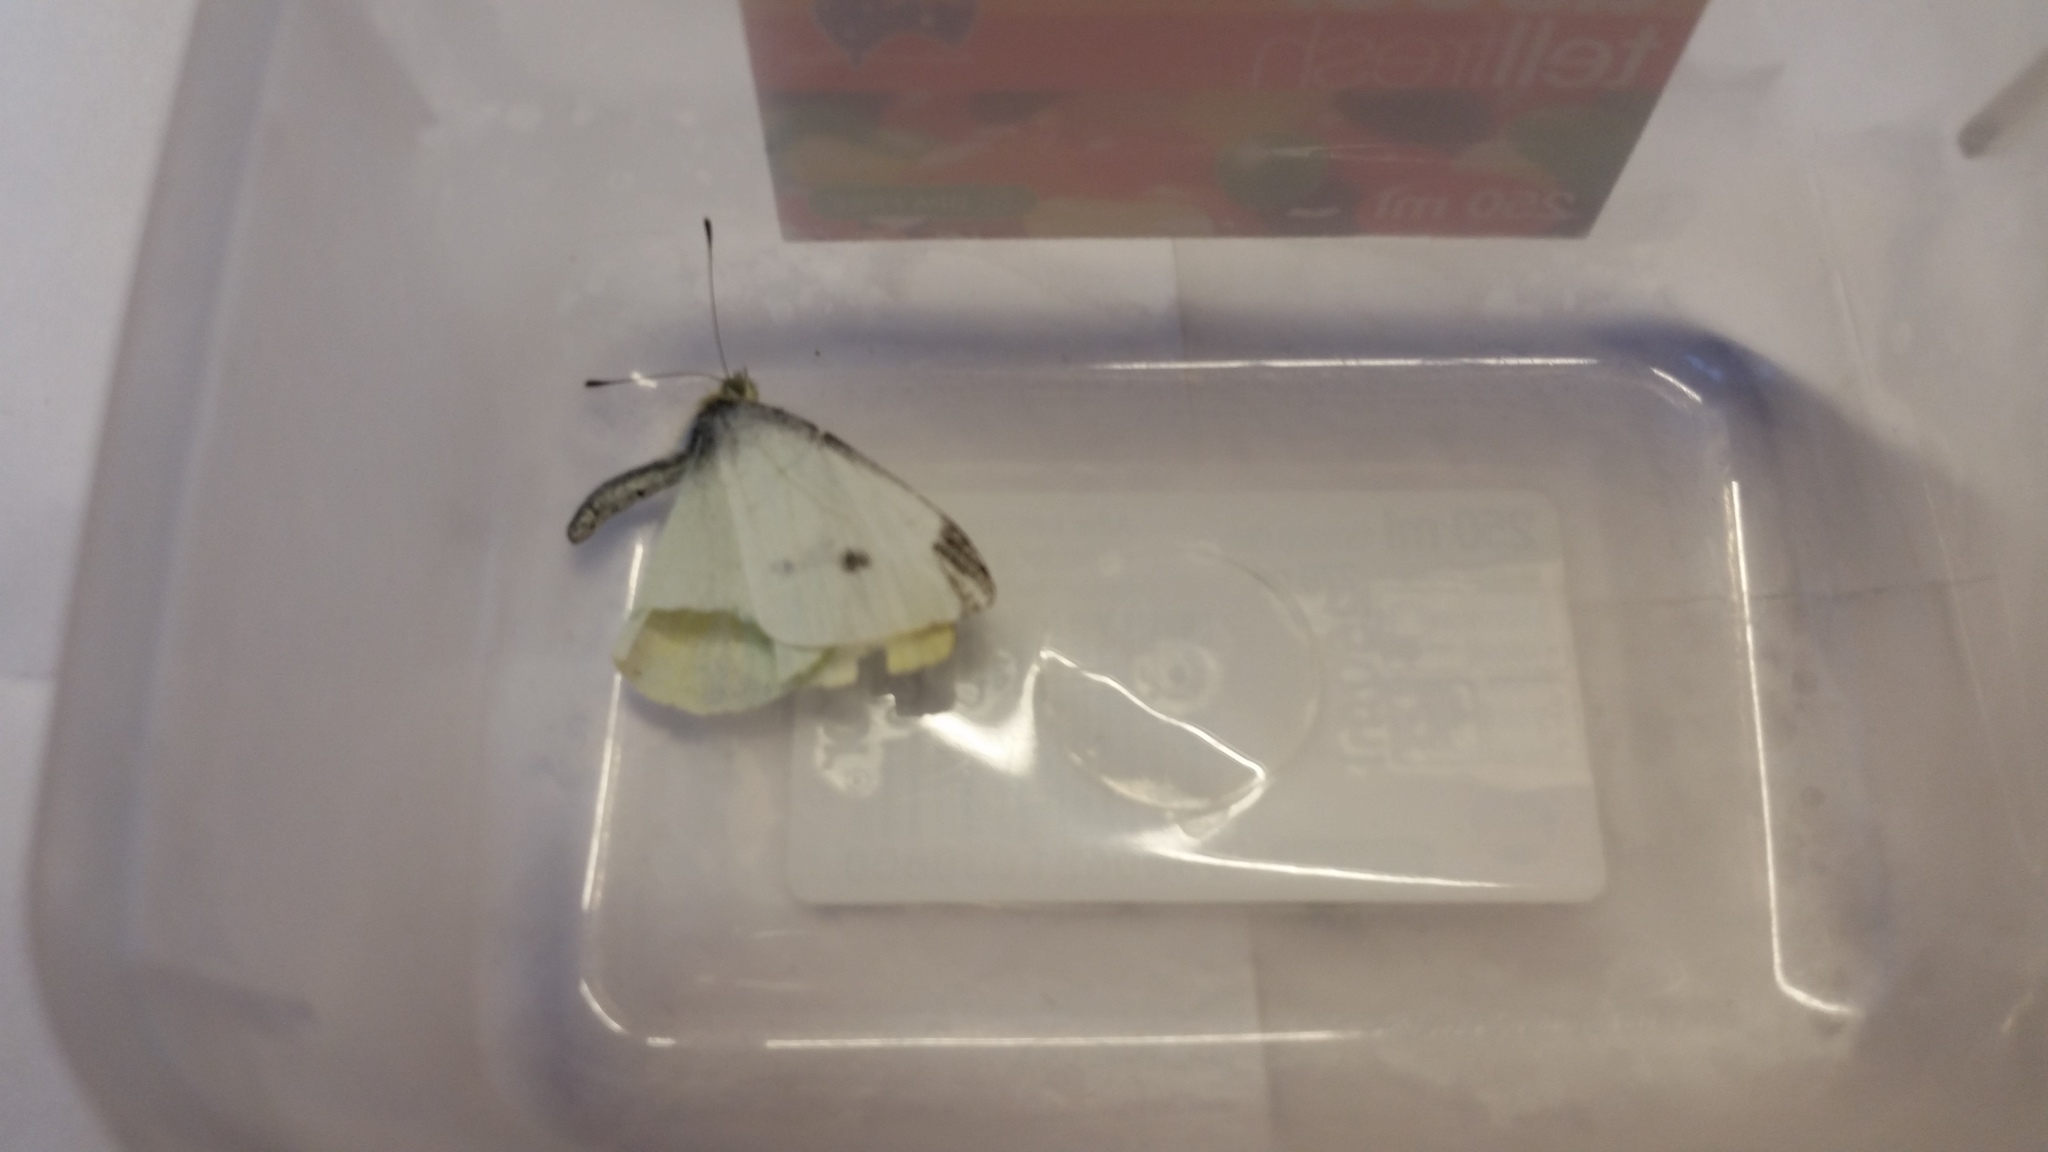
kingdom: Animalia
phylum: Arthropoda
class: Insecta
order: Lepidoptera
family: Pieridae
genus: Pieris
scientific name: Pieris rapae
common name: Small white
